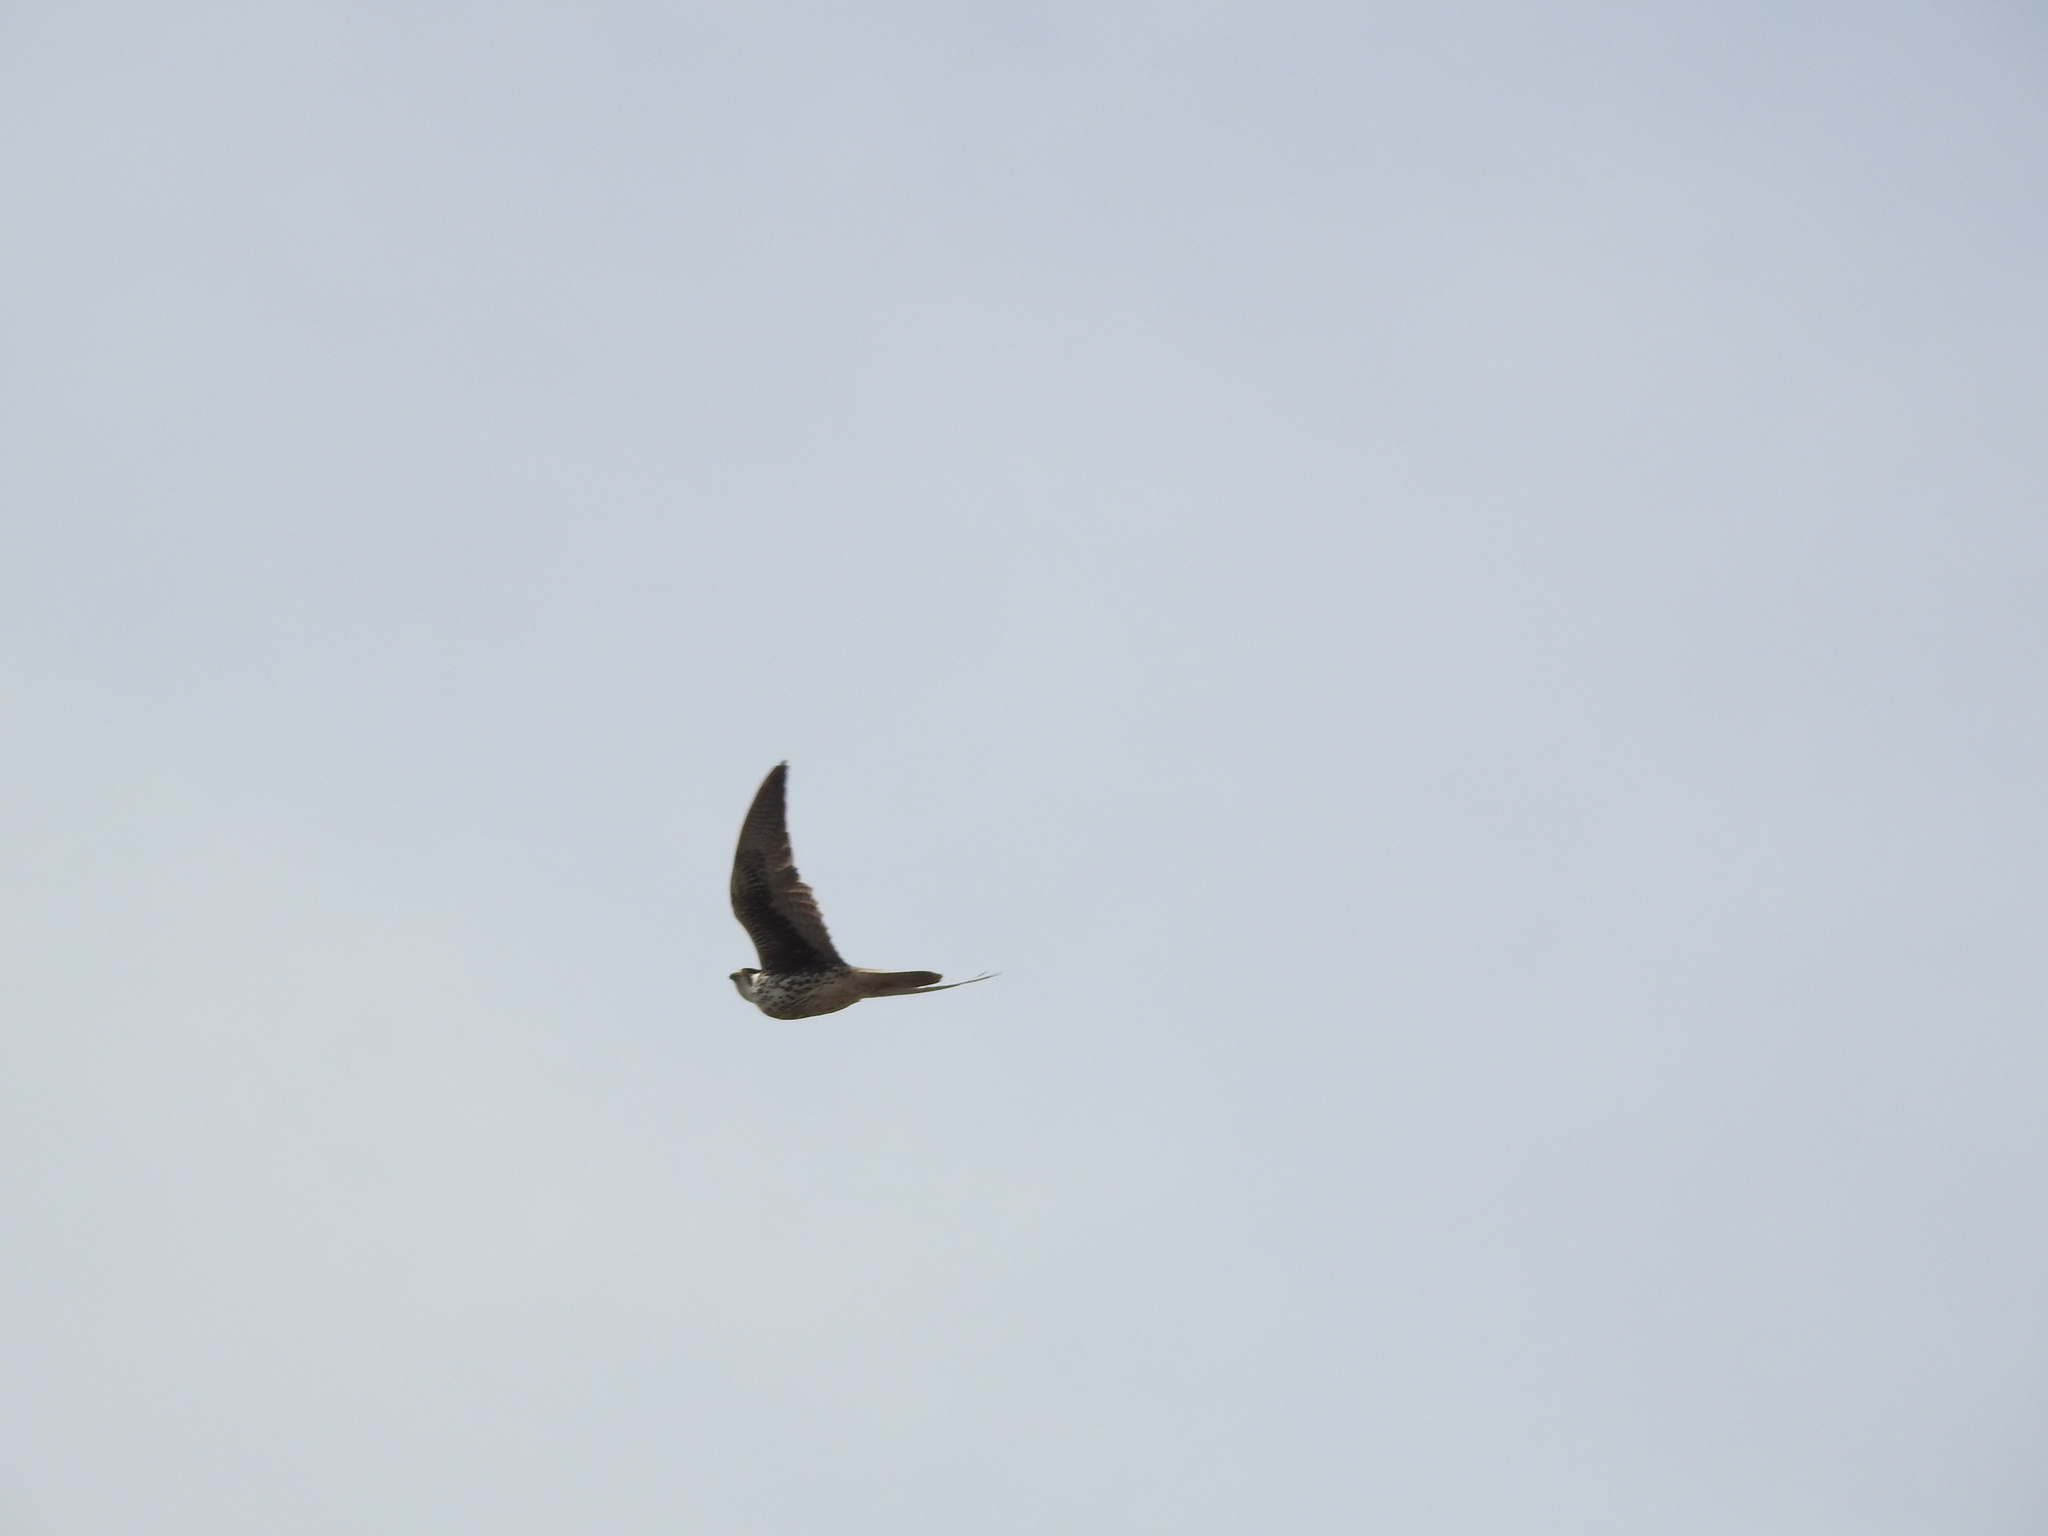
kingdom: Animalia
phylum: Chordata
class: Aves
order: Falconiformes
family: Falconidae
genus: Falco
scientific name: Falco peregrinus
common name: Peregrine falcon
